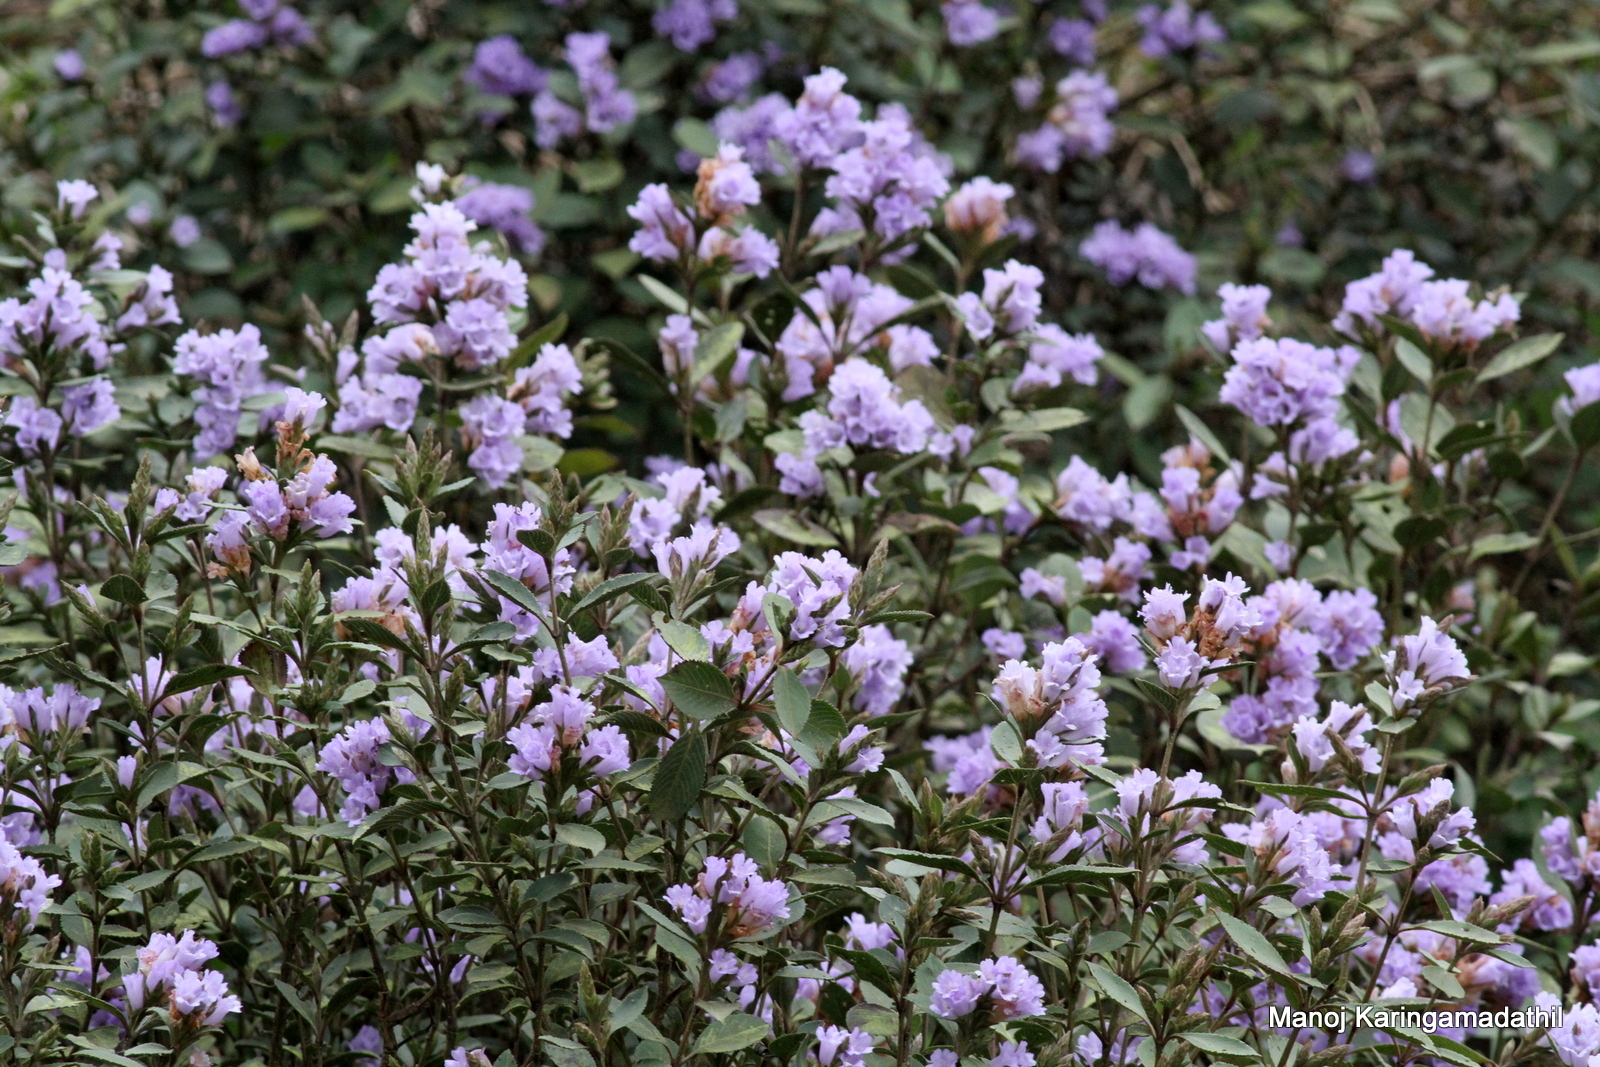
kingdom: Plantae
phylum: Tracheophyta
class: Magnoliopsida
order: Lamiales
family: Acanthaceae
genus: Strobilanthes
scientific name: Strobilanthes kunthiana
